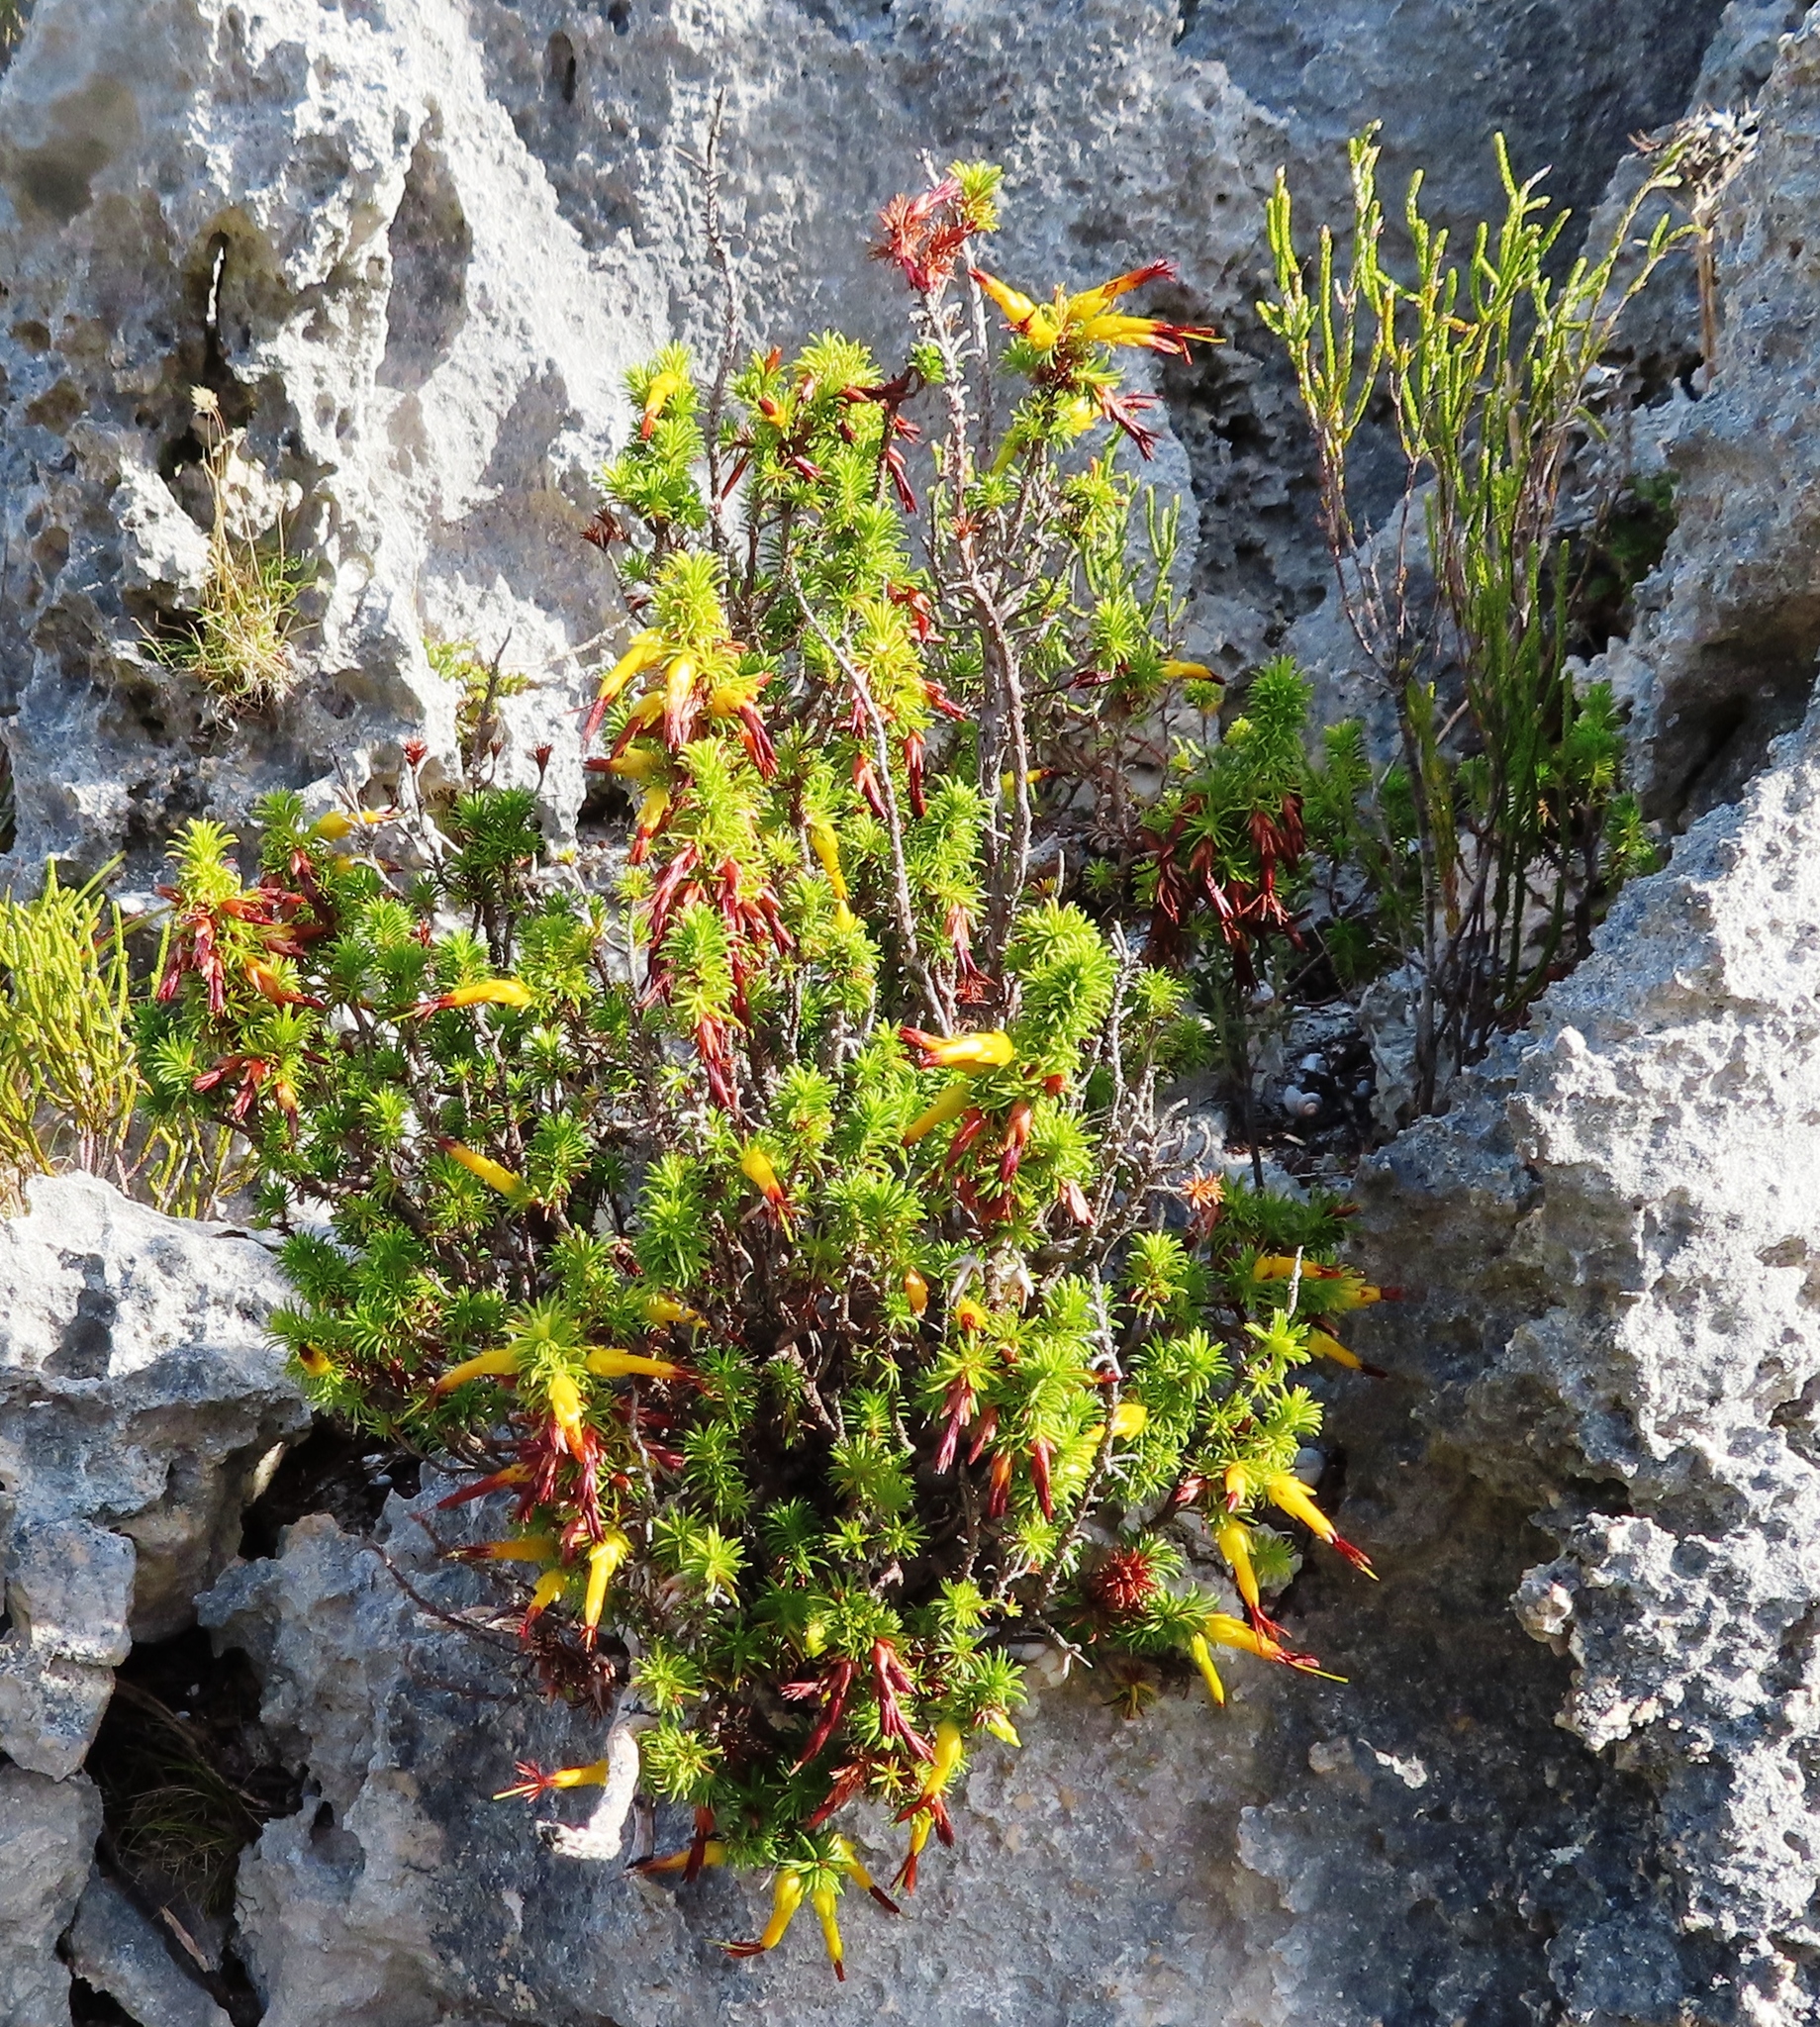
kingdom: Plantae
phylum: Tracheophyta
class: Magnoliopsida
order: Ericales
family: Ericaceae
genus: Erica
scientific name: Erica coccinea
